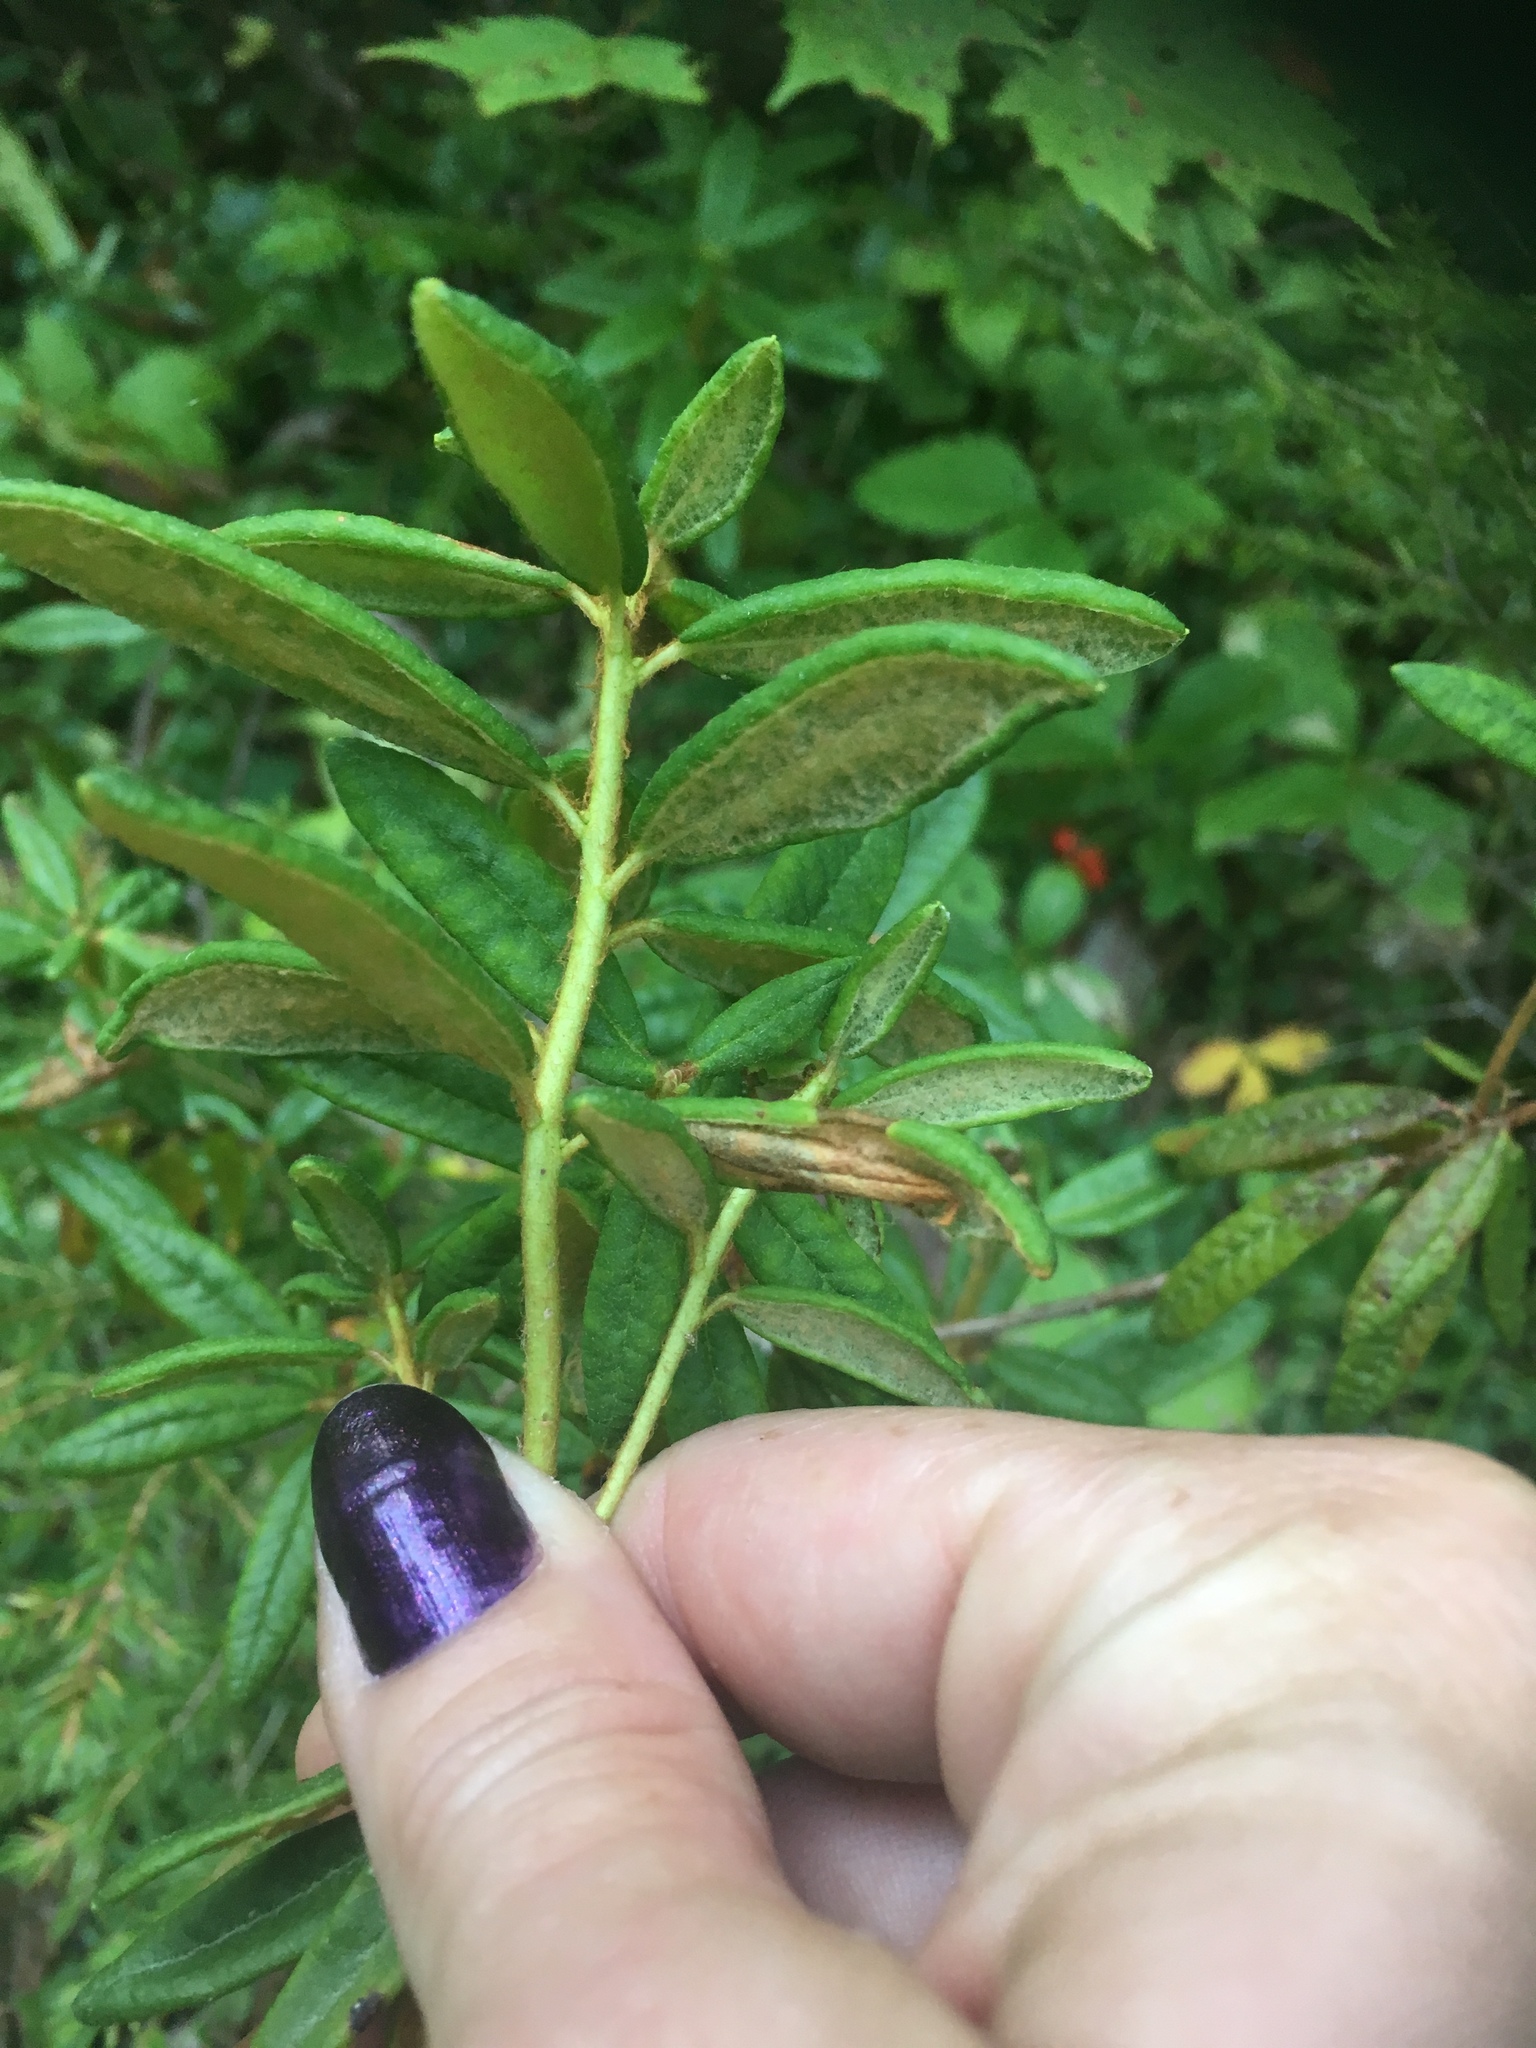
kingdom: Plantae
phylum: Tracheophyta
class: Magnoliopsida
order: Ericales
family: Ericaceae
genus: Rhododendron
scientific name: Rhododendron groenlandicum
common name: Bog labrador tea
